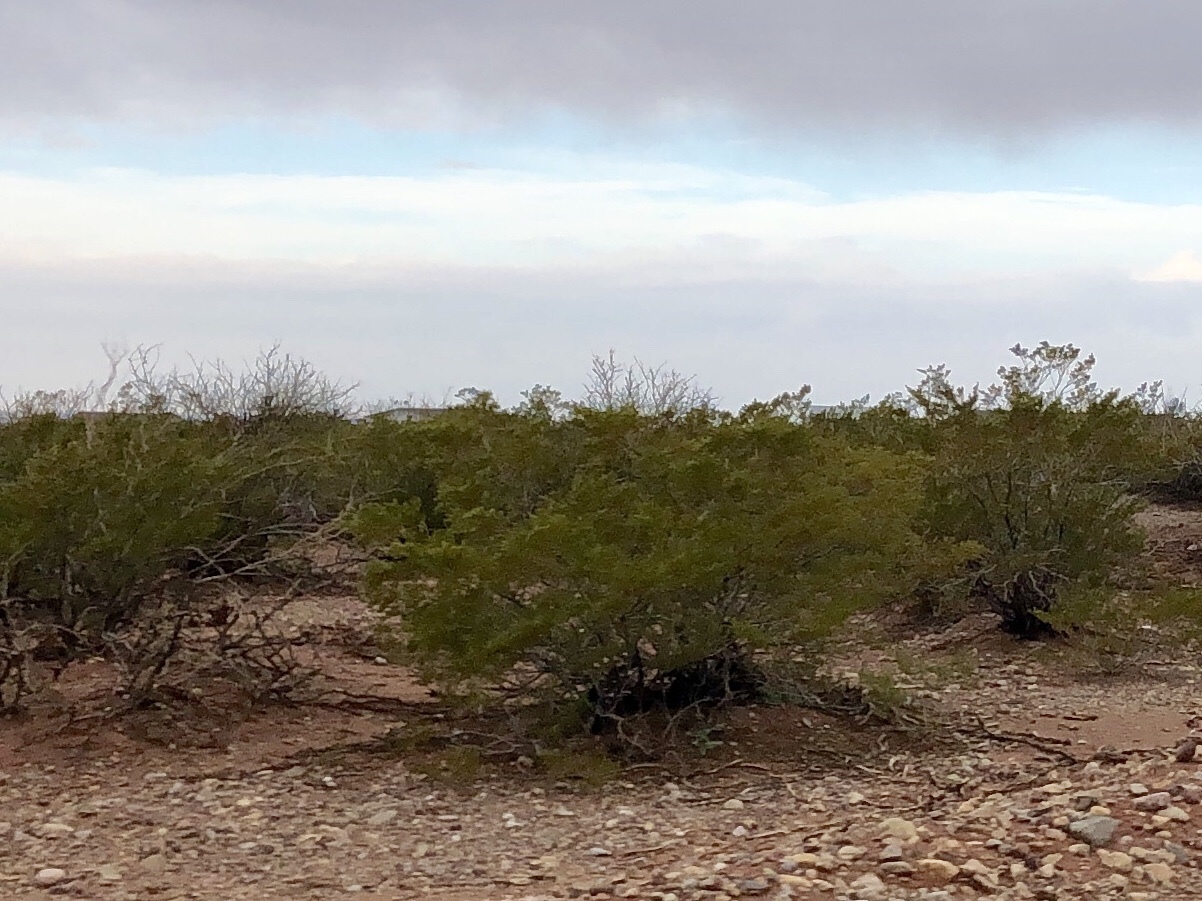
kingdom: Plantae
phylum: Tracheophyta
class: Magnoliopsida
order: Zygophyllales
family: Zygophyllaceae
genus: Larrea
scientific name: Larrea tridentata
